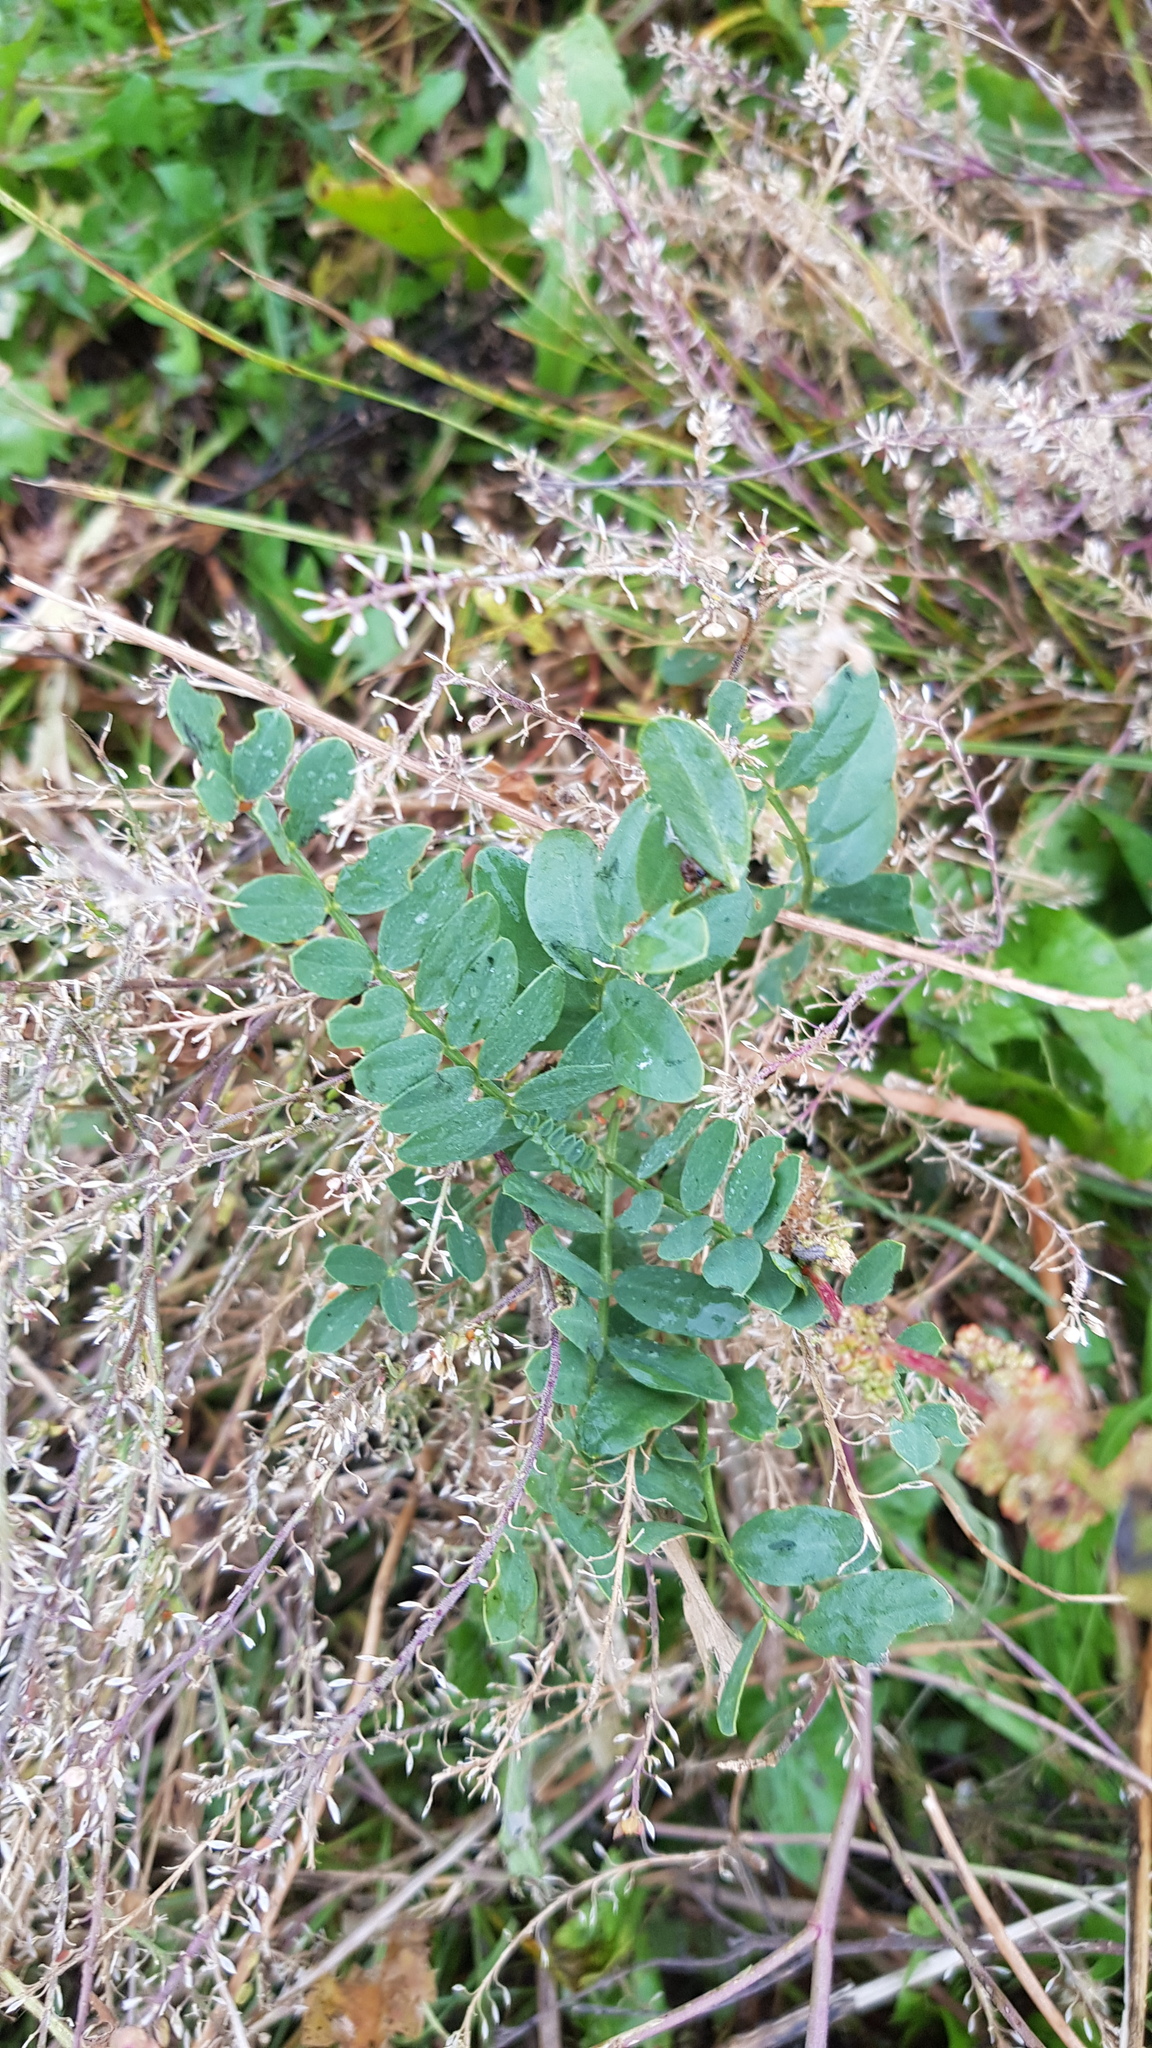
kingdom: Plantae
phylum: Tracheophyta
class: Magnoliopsida
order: Fabales
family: Fabaceae
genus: Astragalus
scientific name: Astragalus laxmannii
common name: Laxmann's milk-vetch
